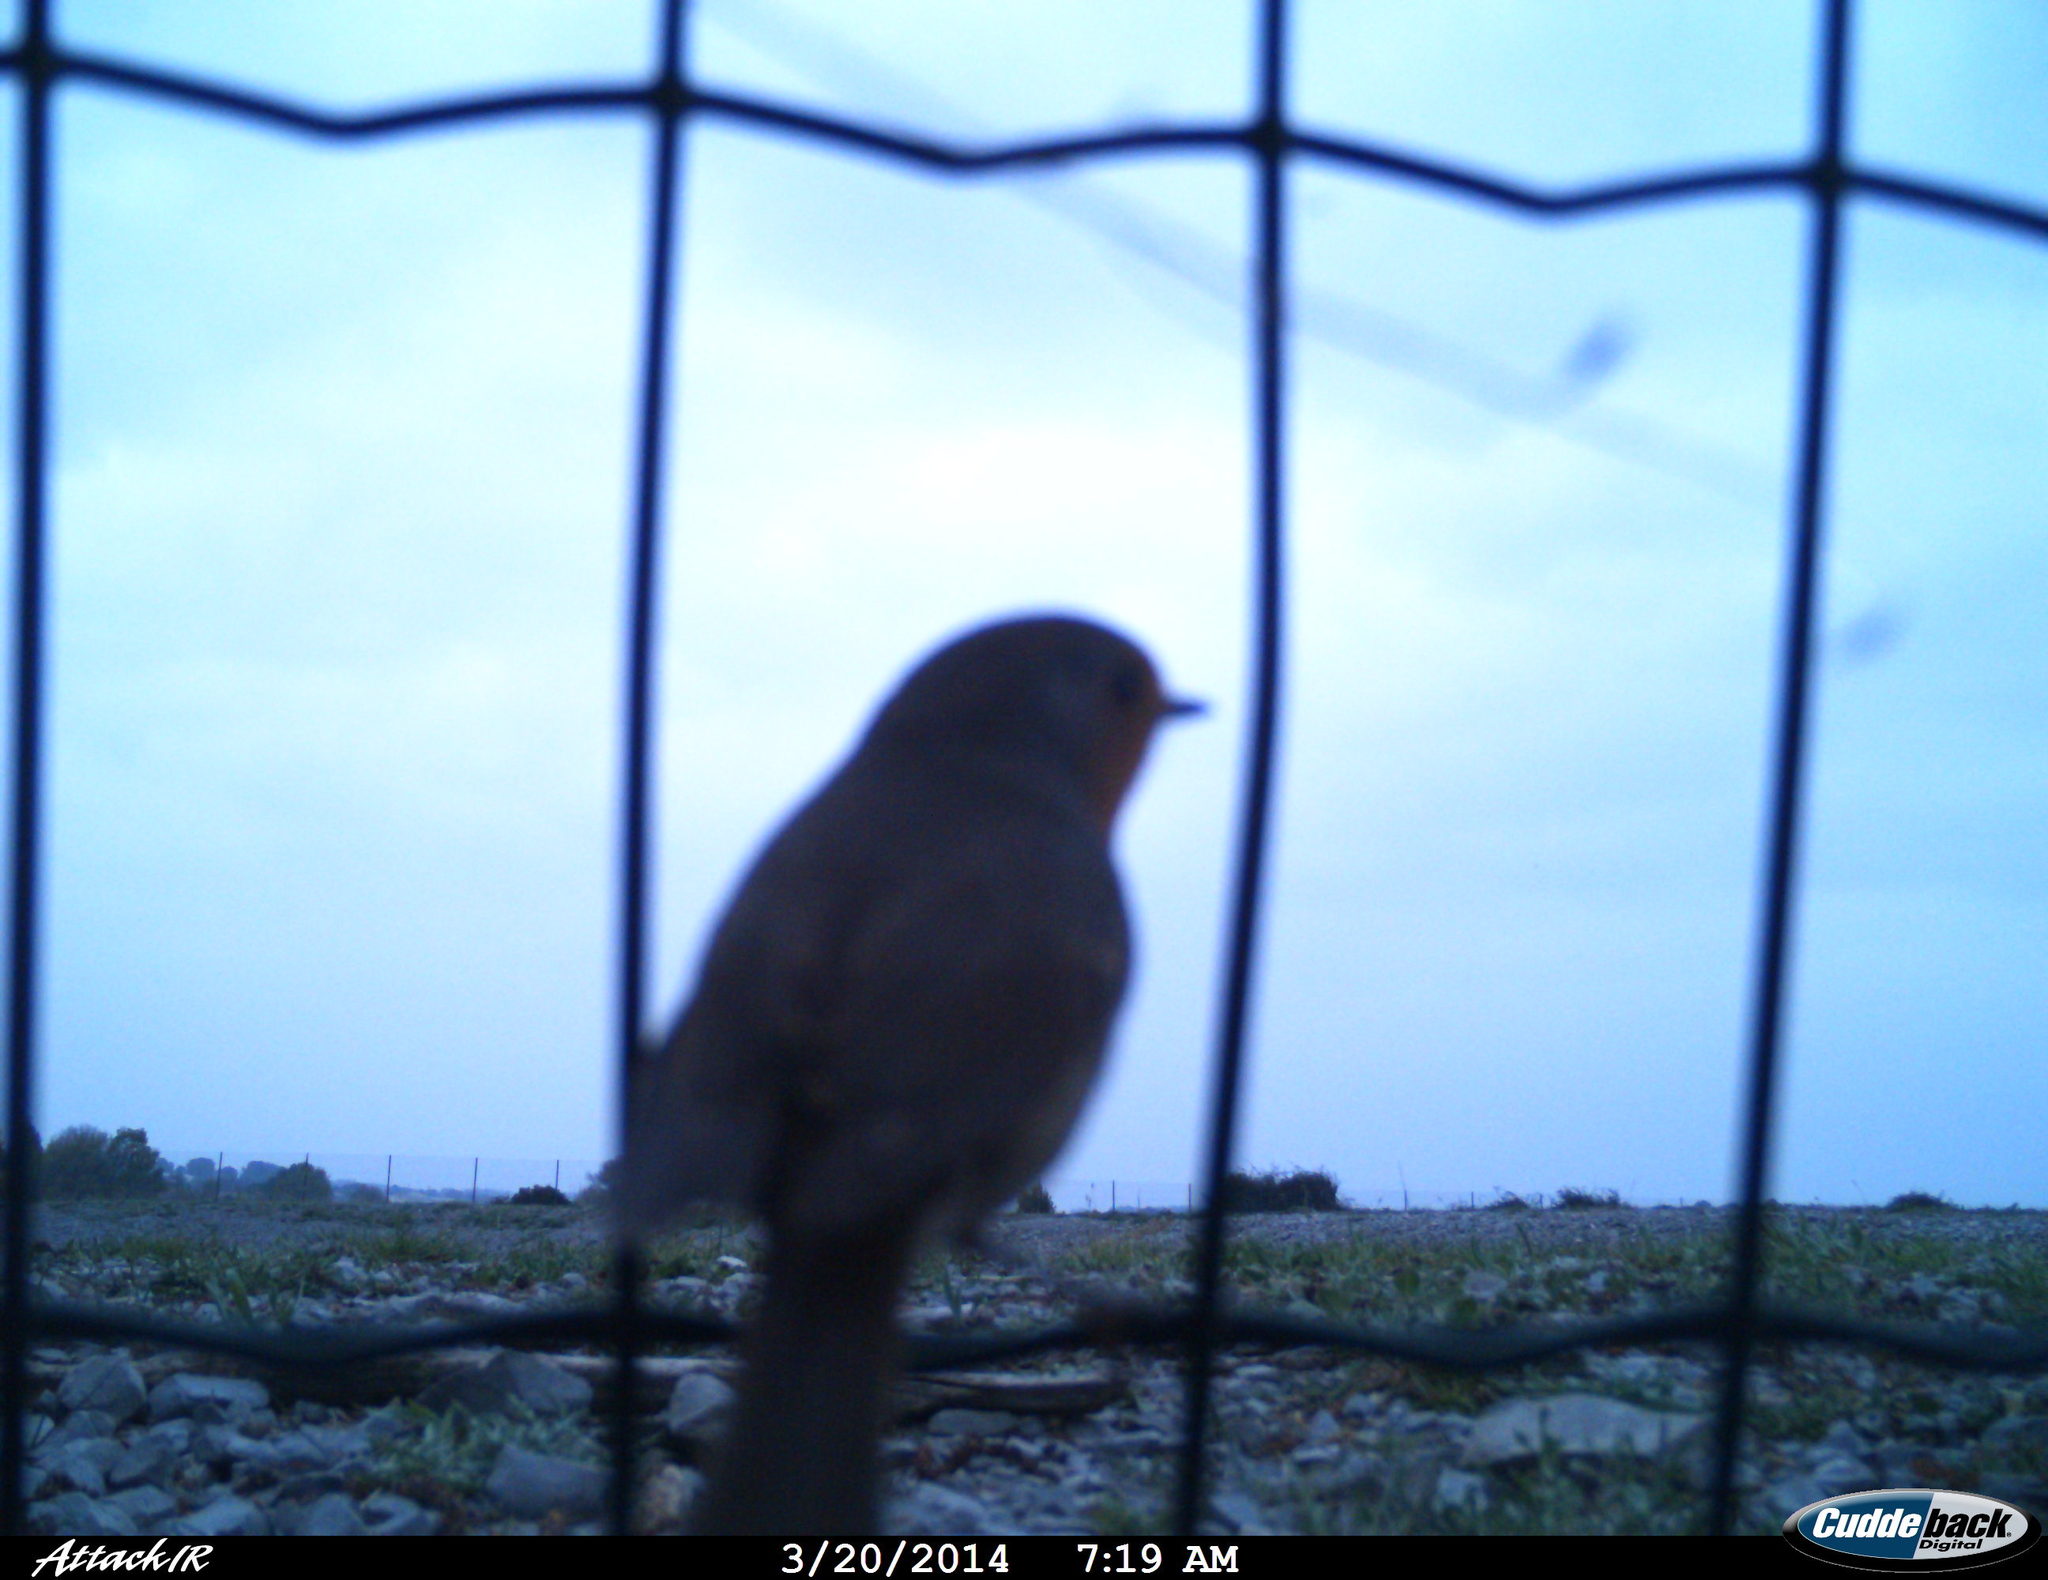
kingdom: Animalia
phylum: Chordata
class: Aves
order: Passeriformes
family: Muscicapidae
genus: Erithacus
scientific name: Erithacus rubecula
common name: European robin
